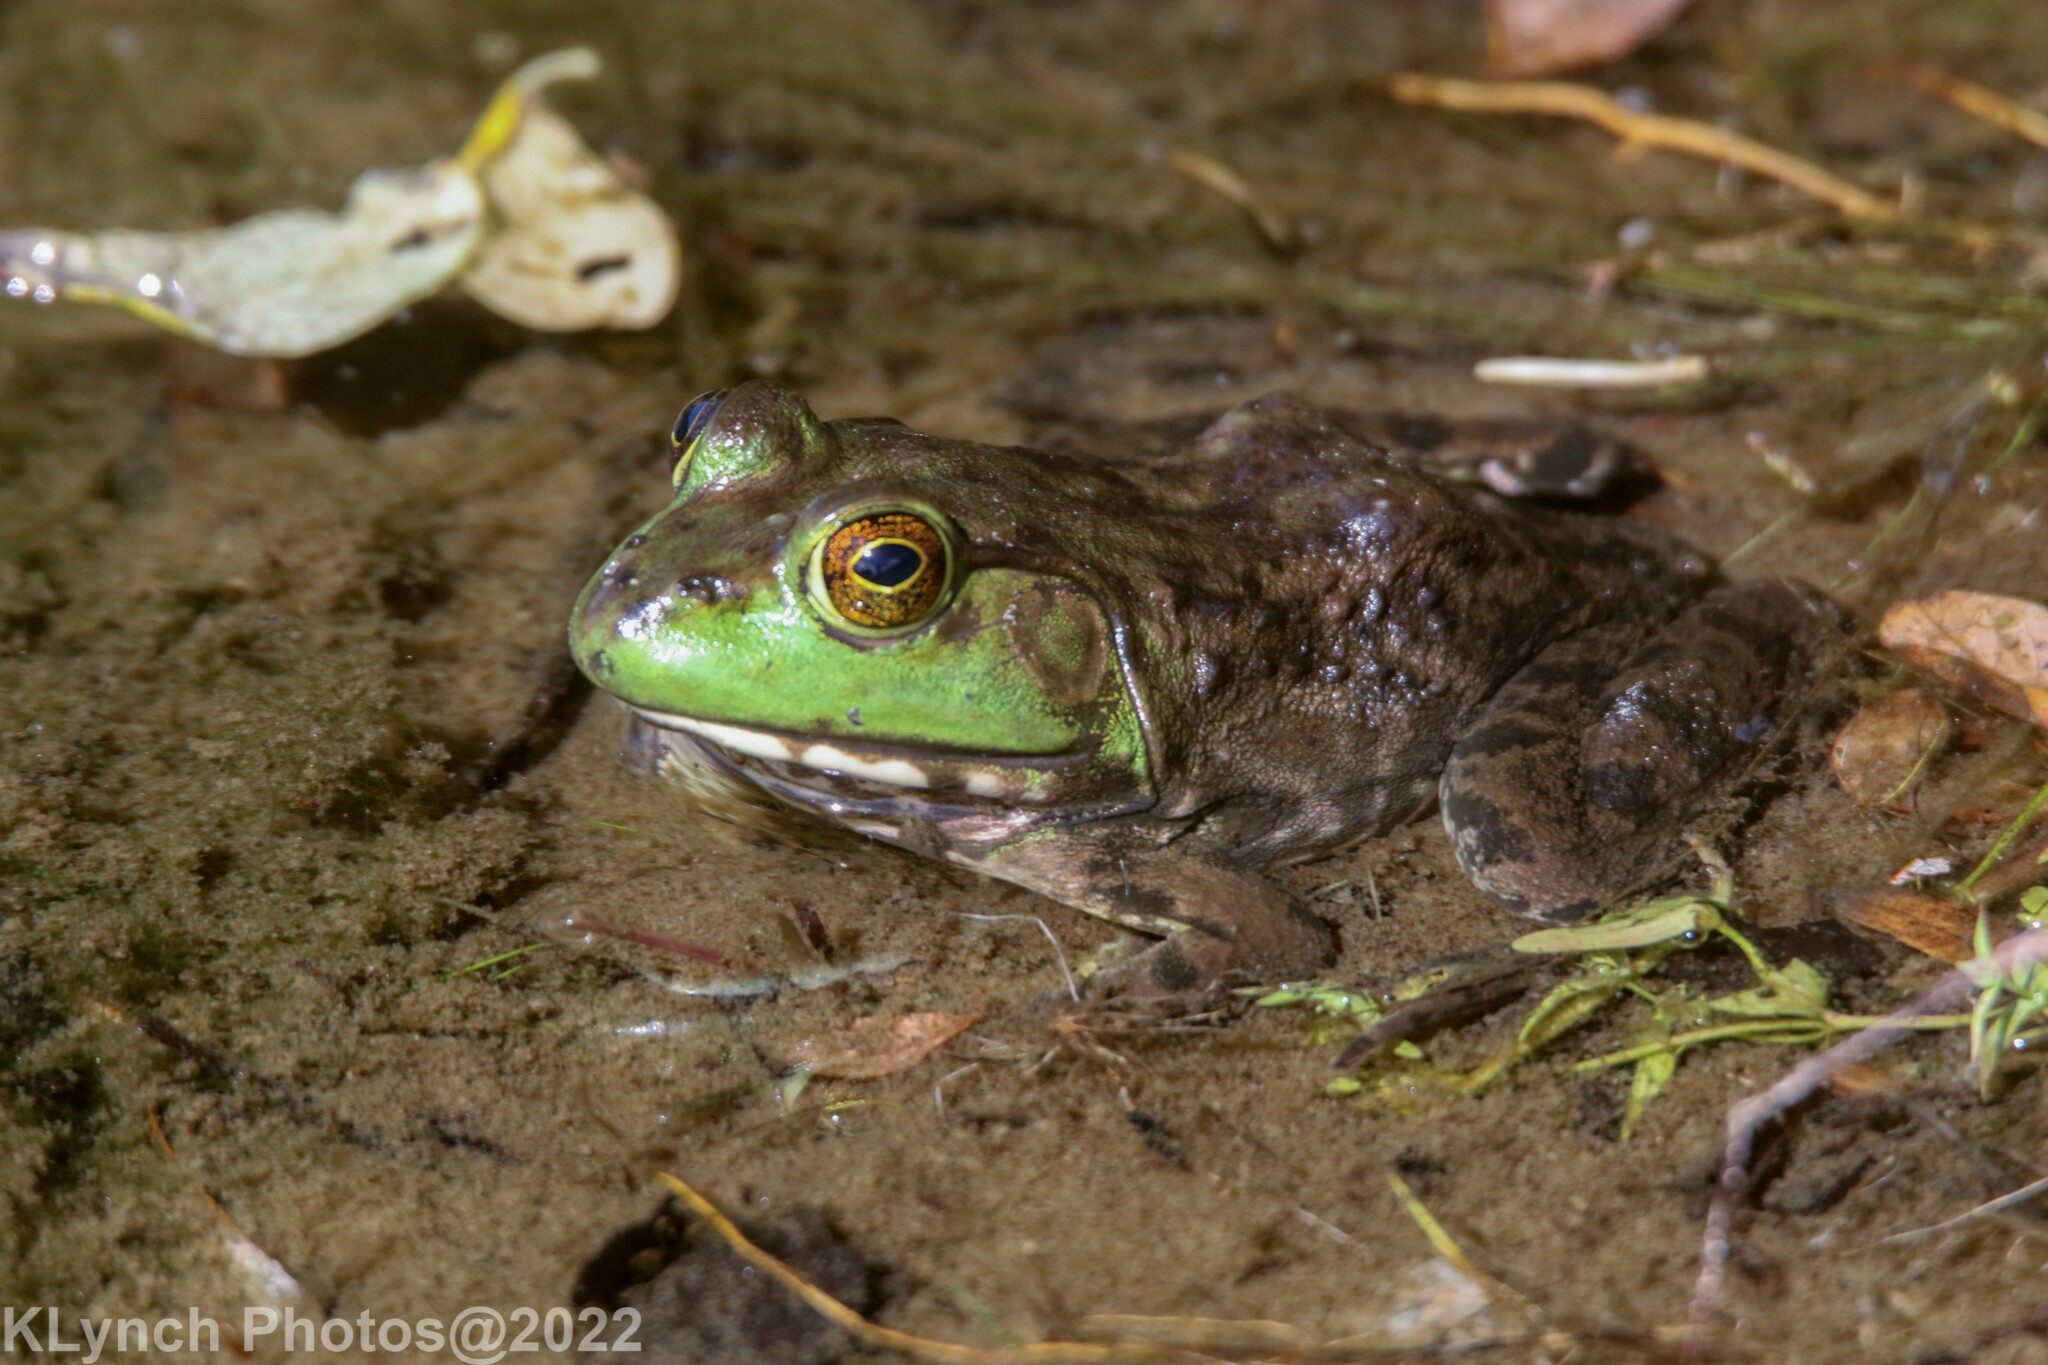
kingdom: Animalia
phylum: Chordata
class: Amphibia
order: Anura
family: Ranidae
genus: Lithobates
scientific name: Lithobates catesbeianus
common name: American bullfrog
